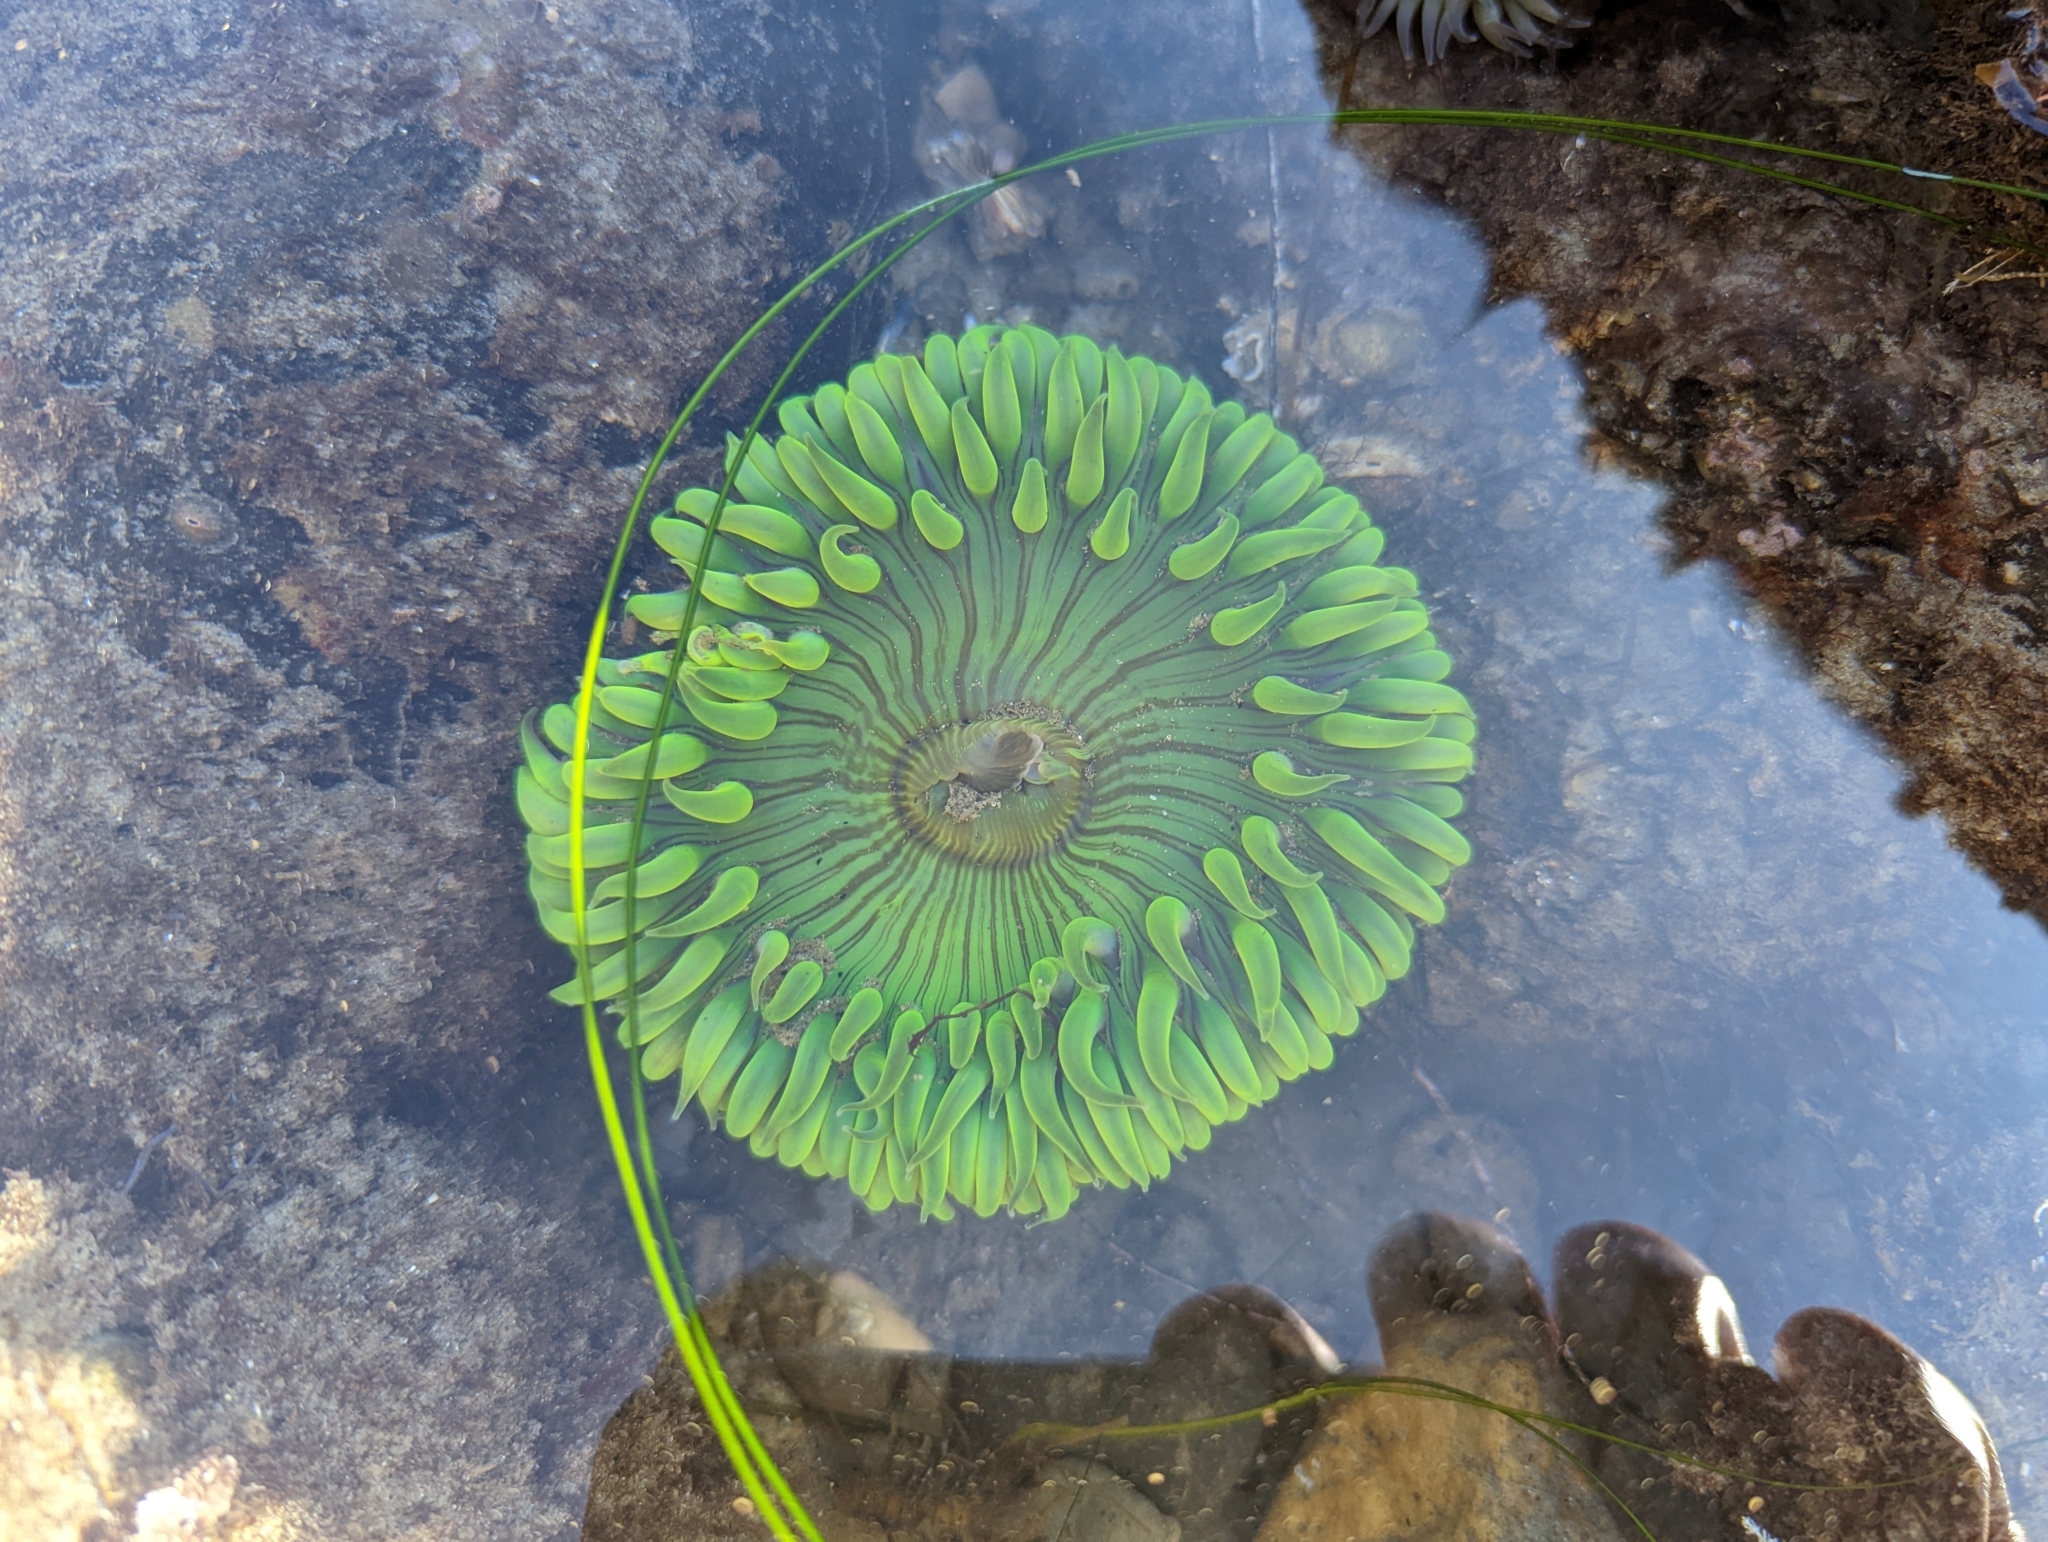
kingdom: Animalia
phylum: Cnidaria
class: Anthozoa
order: Actiniaria
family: Actiniidae
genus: Anthopleura
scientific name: Anthopleura sola
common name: Sun anemone
